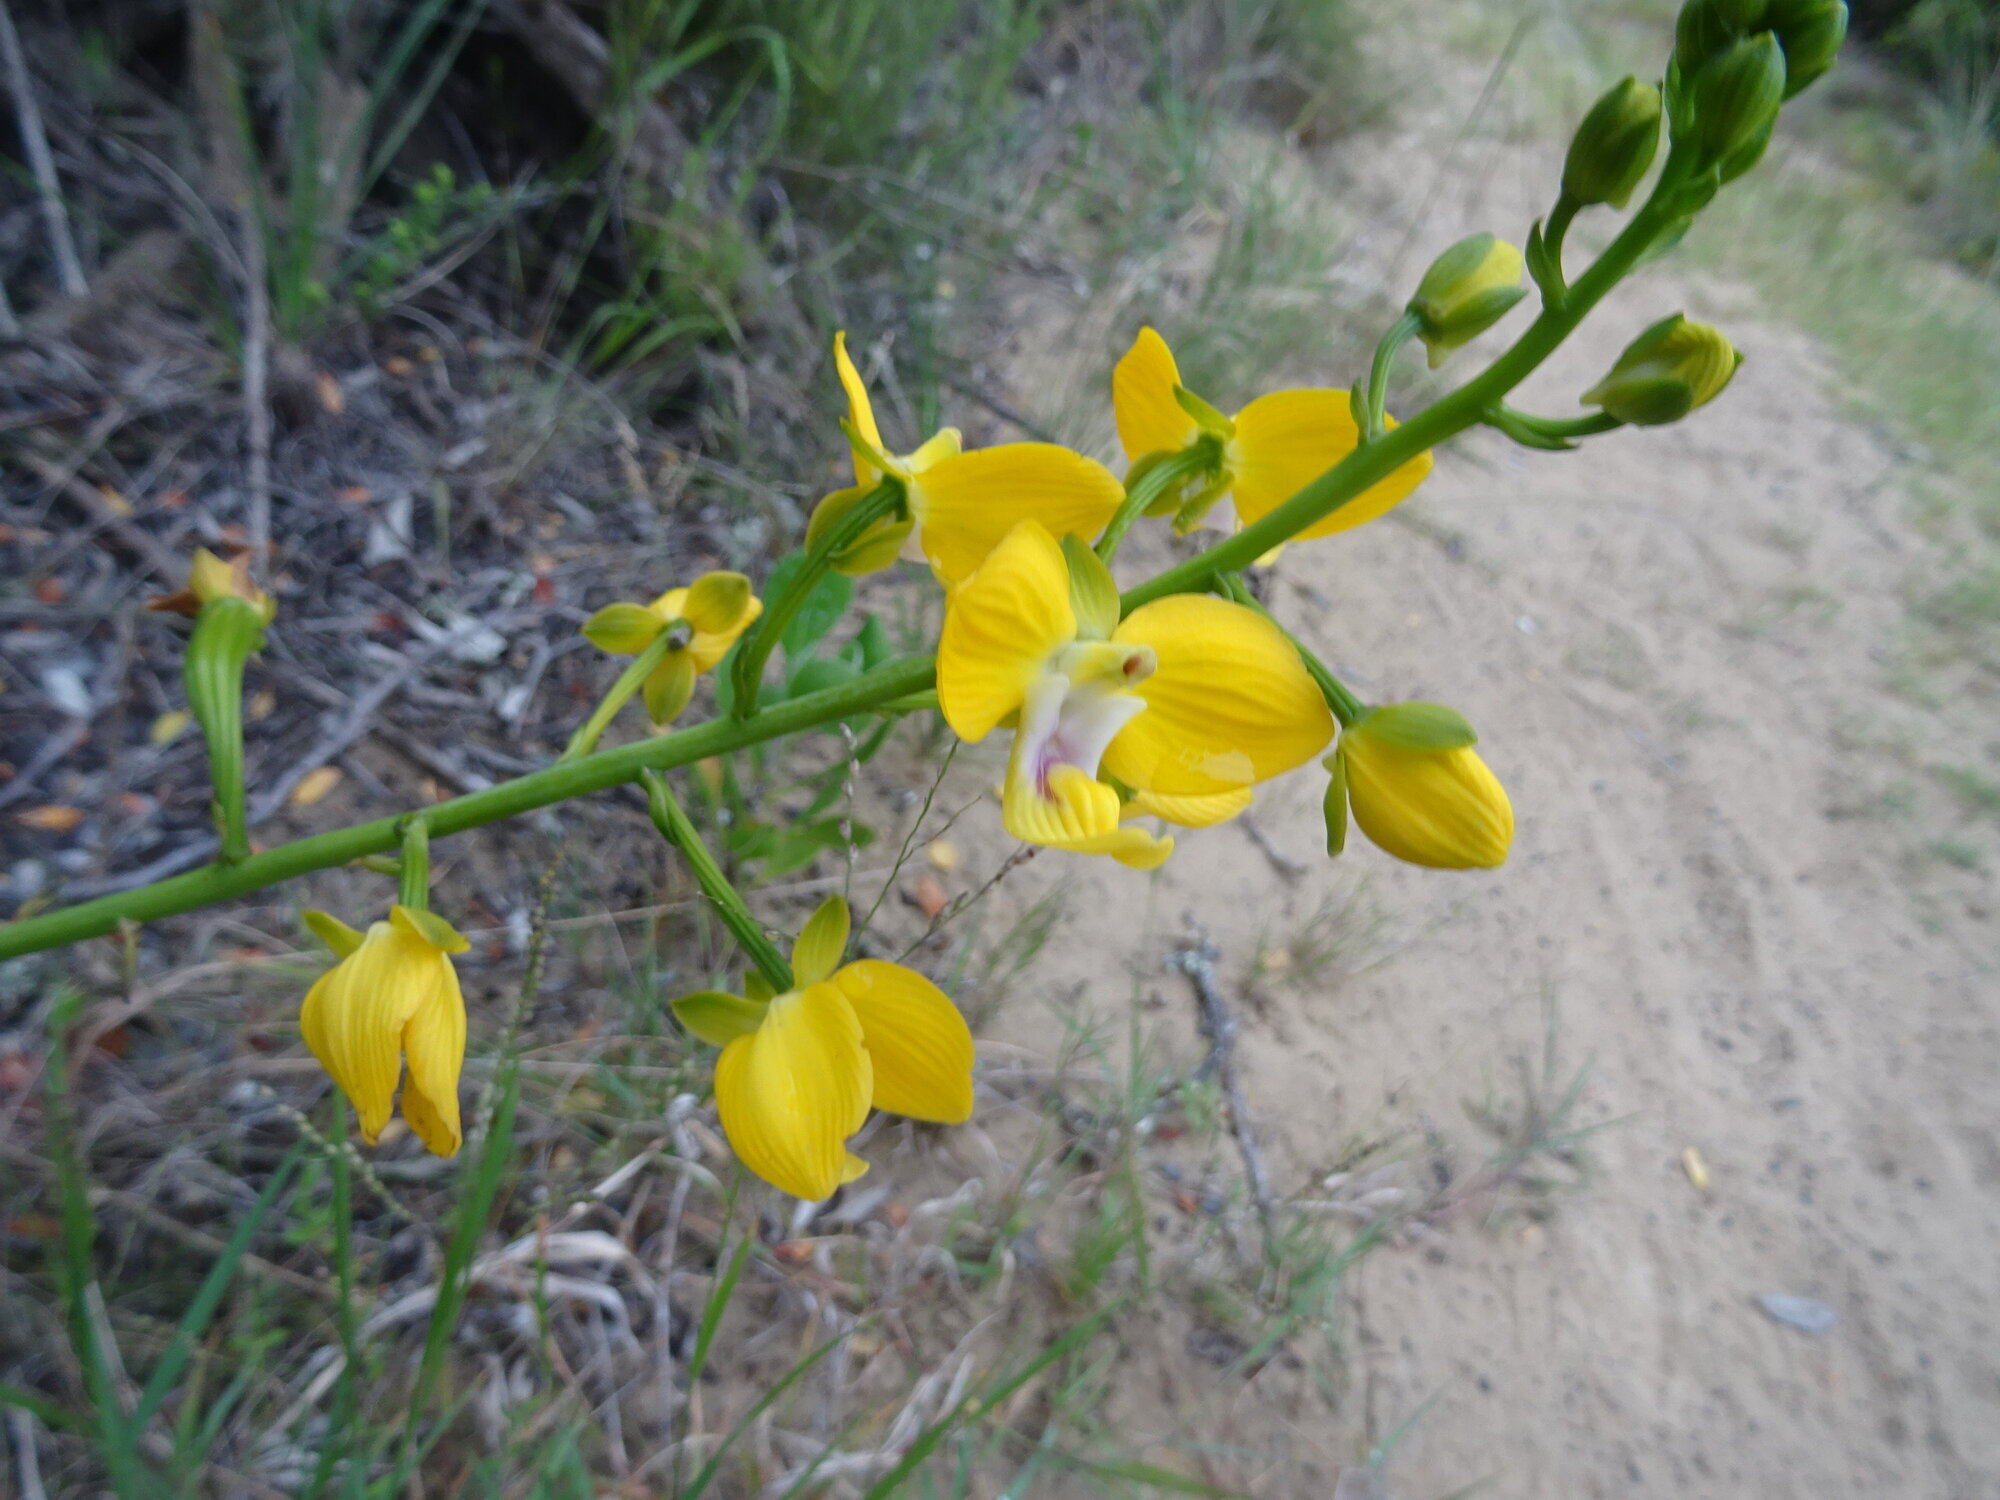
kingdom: Plantae
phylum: Tracheophyta
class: Liliopsida
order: Asparagales
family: Orchidaceae
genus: Eulophia
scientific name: Eulophia speciosa
